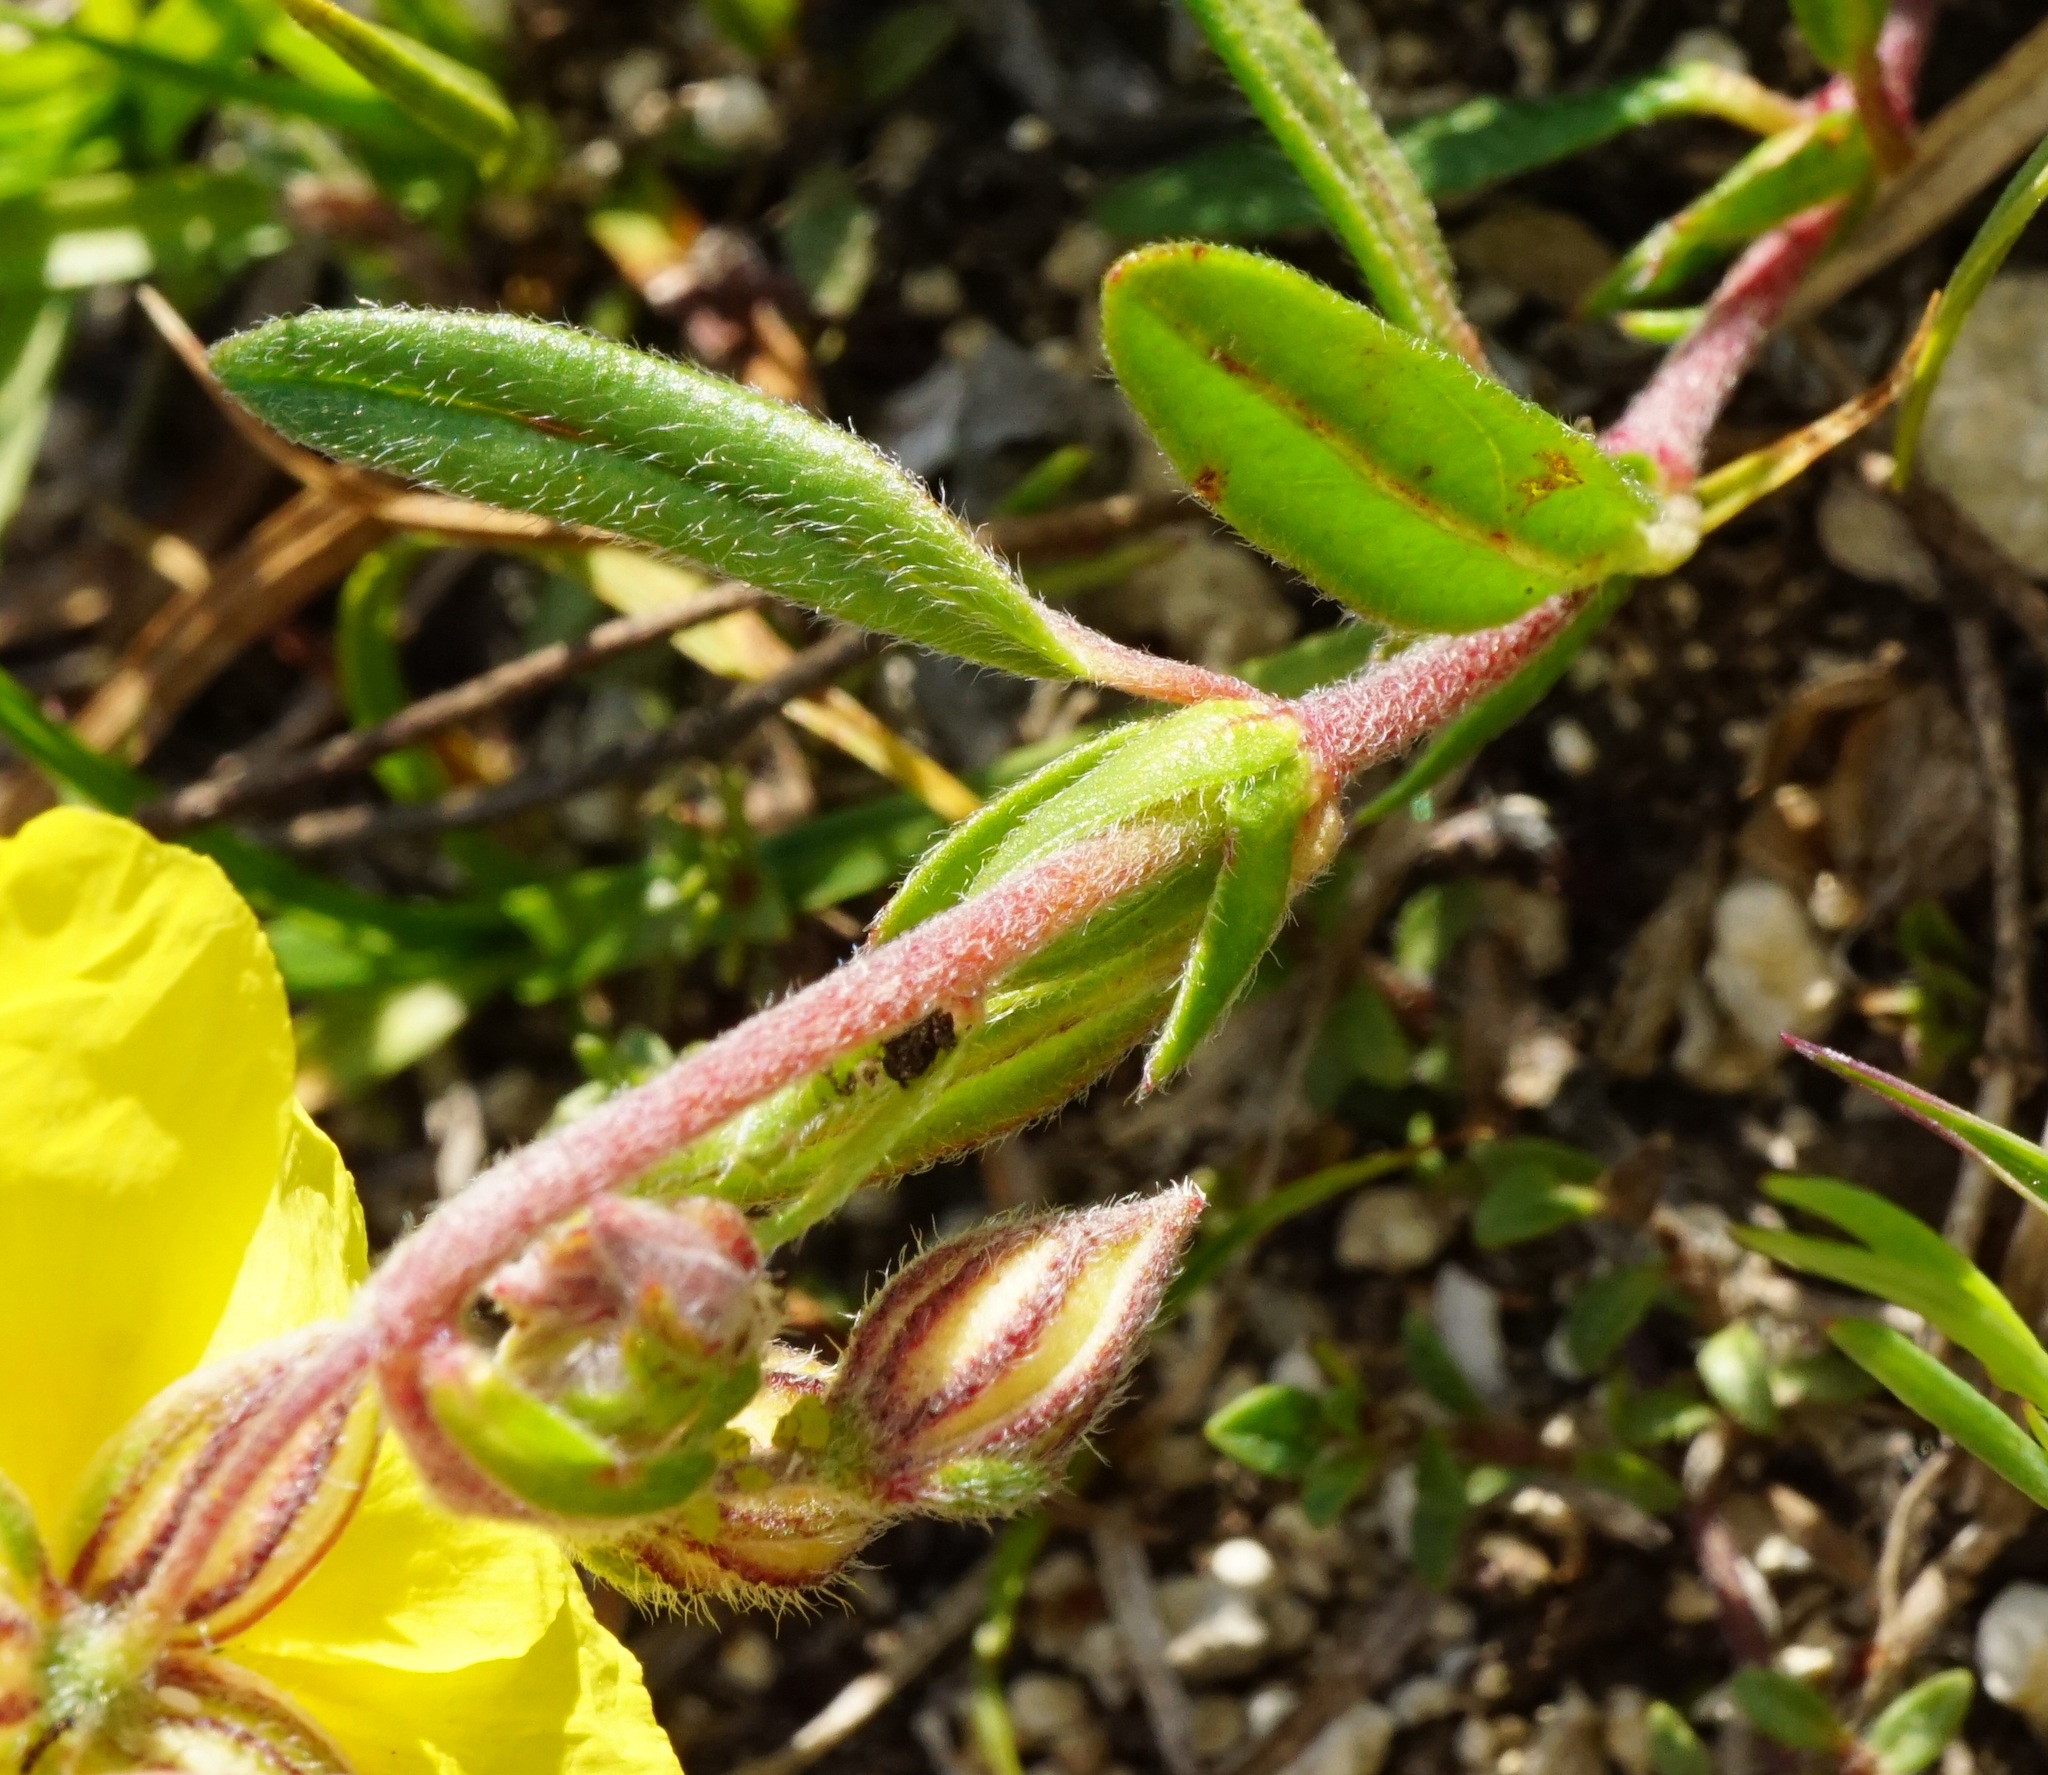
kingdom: Plantae
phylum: Tracheophyta
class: Magnoliopsida
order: Malvales
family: Cistaceae
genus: Helianthemum
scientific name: Helianthemum nummularium
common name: Common rock-rose
